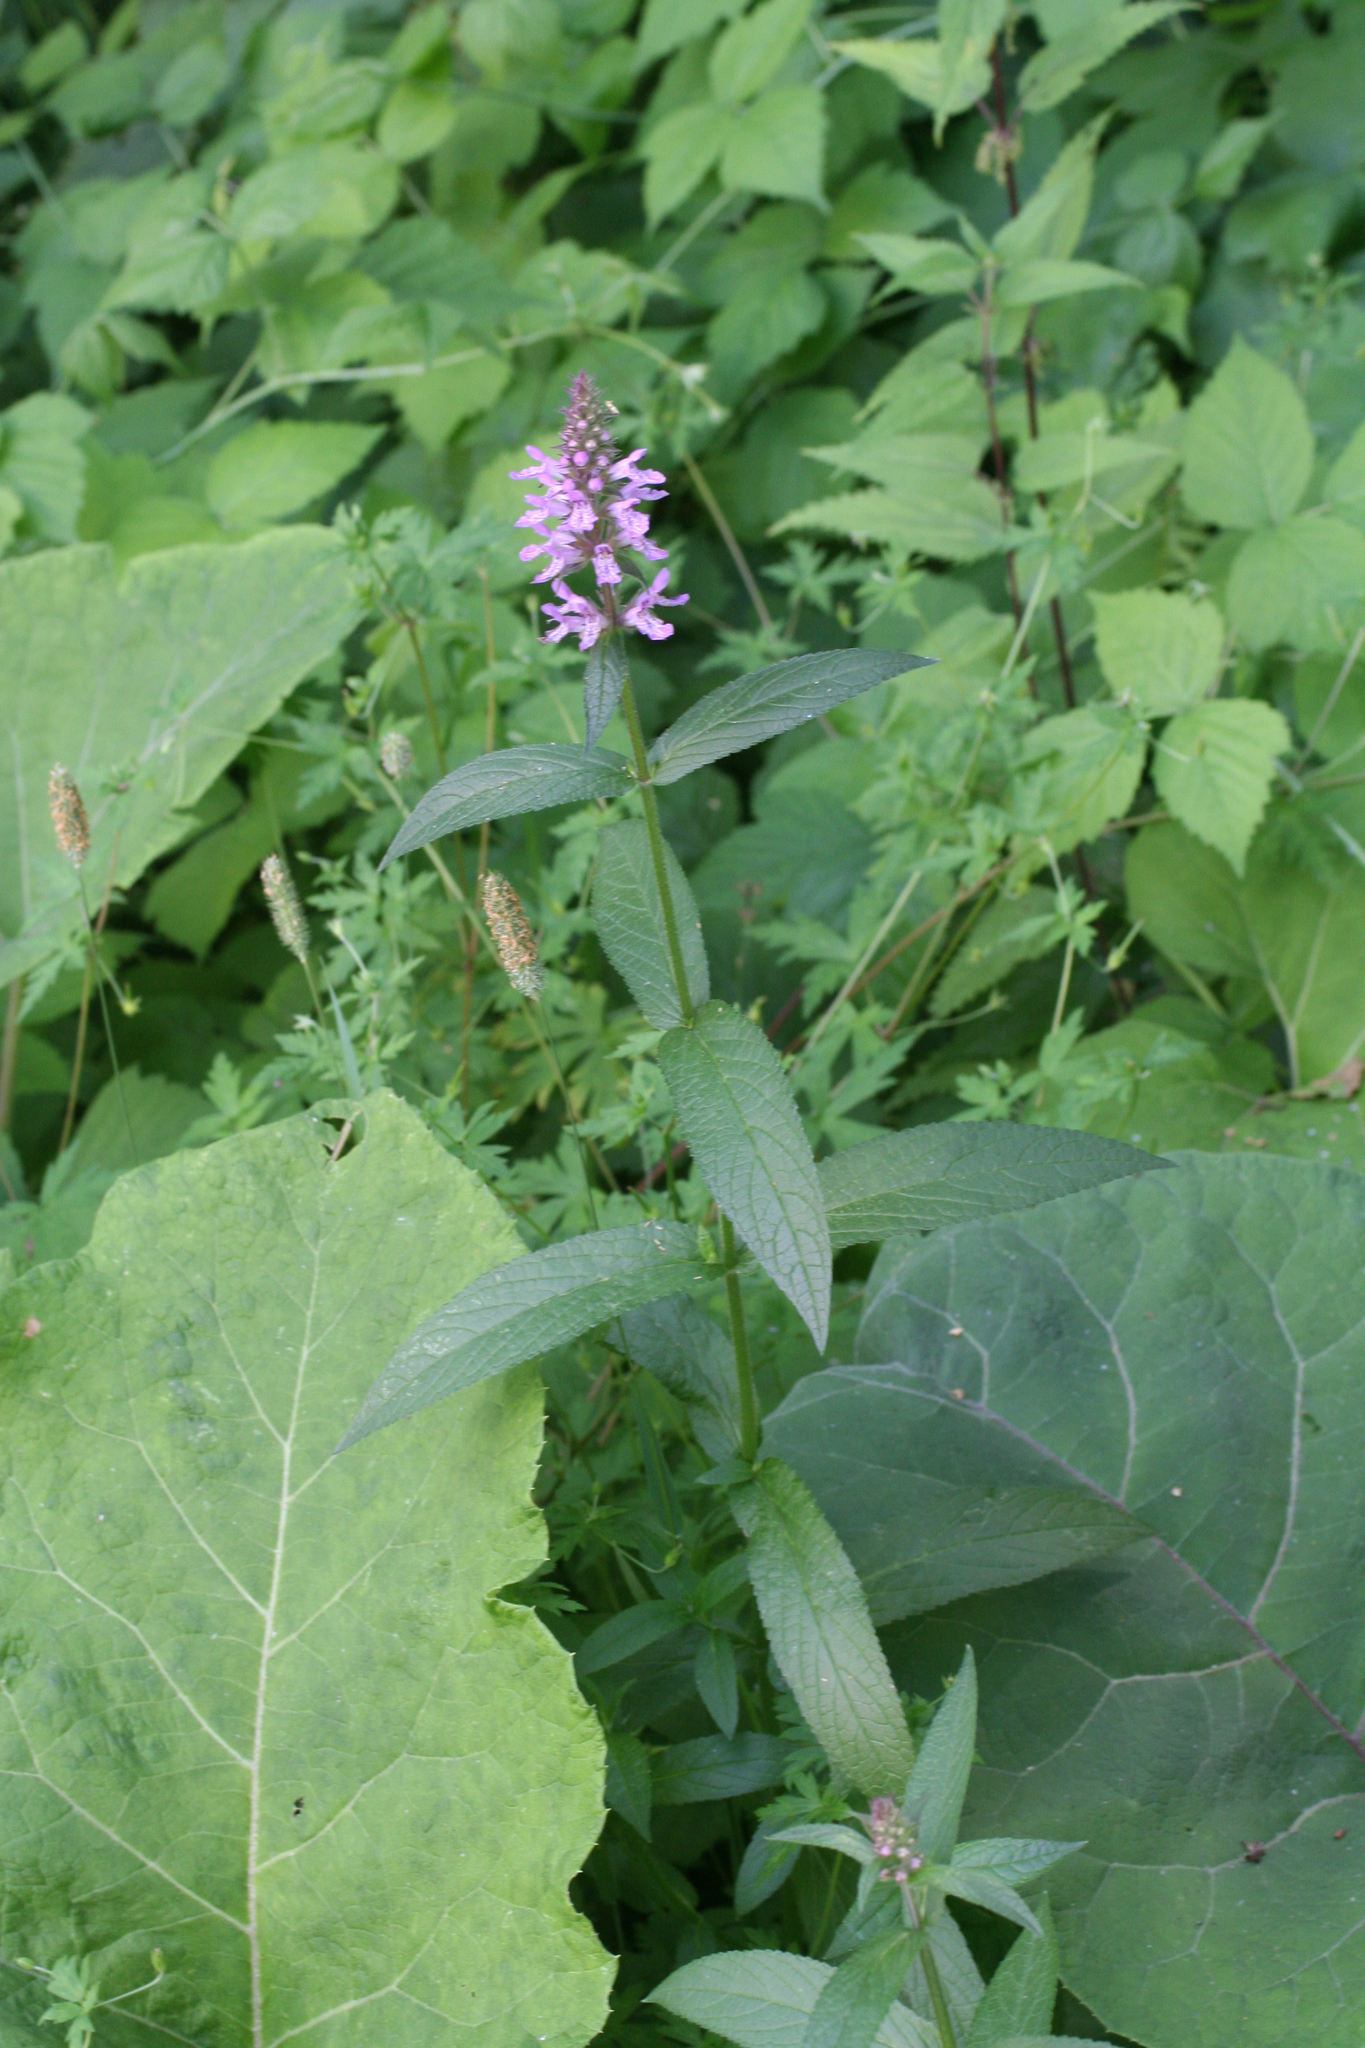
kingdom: Plantae
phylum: Tracheophyta
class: Magnoliopsida
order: Lamiales
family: Lamiaceae
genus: Stachys
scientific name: Stachys palustris
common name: Marsh woundwort
